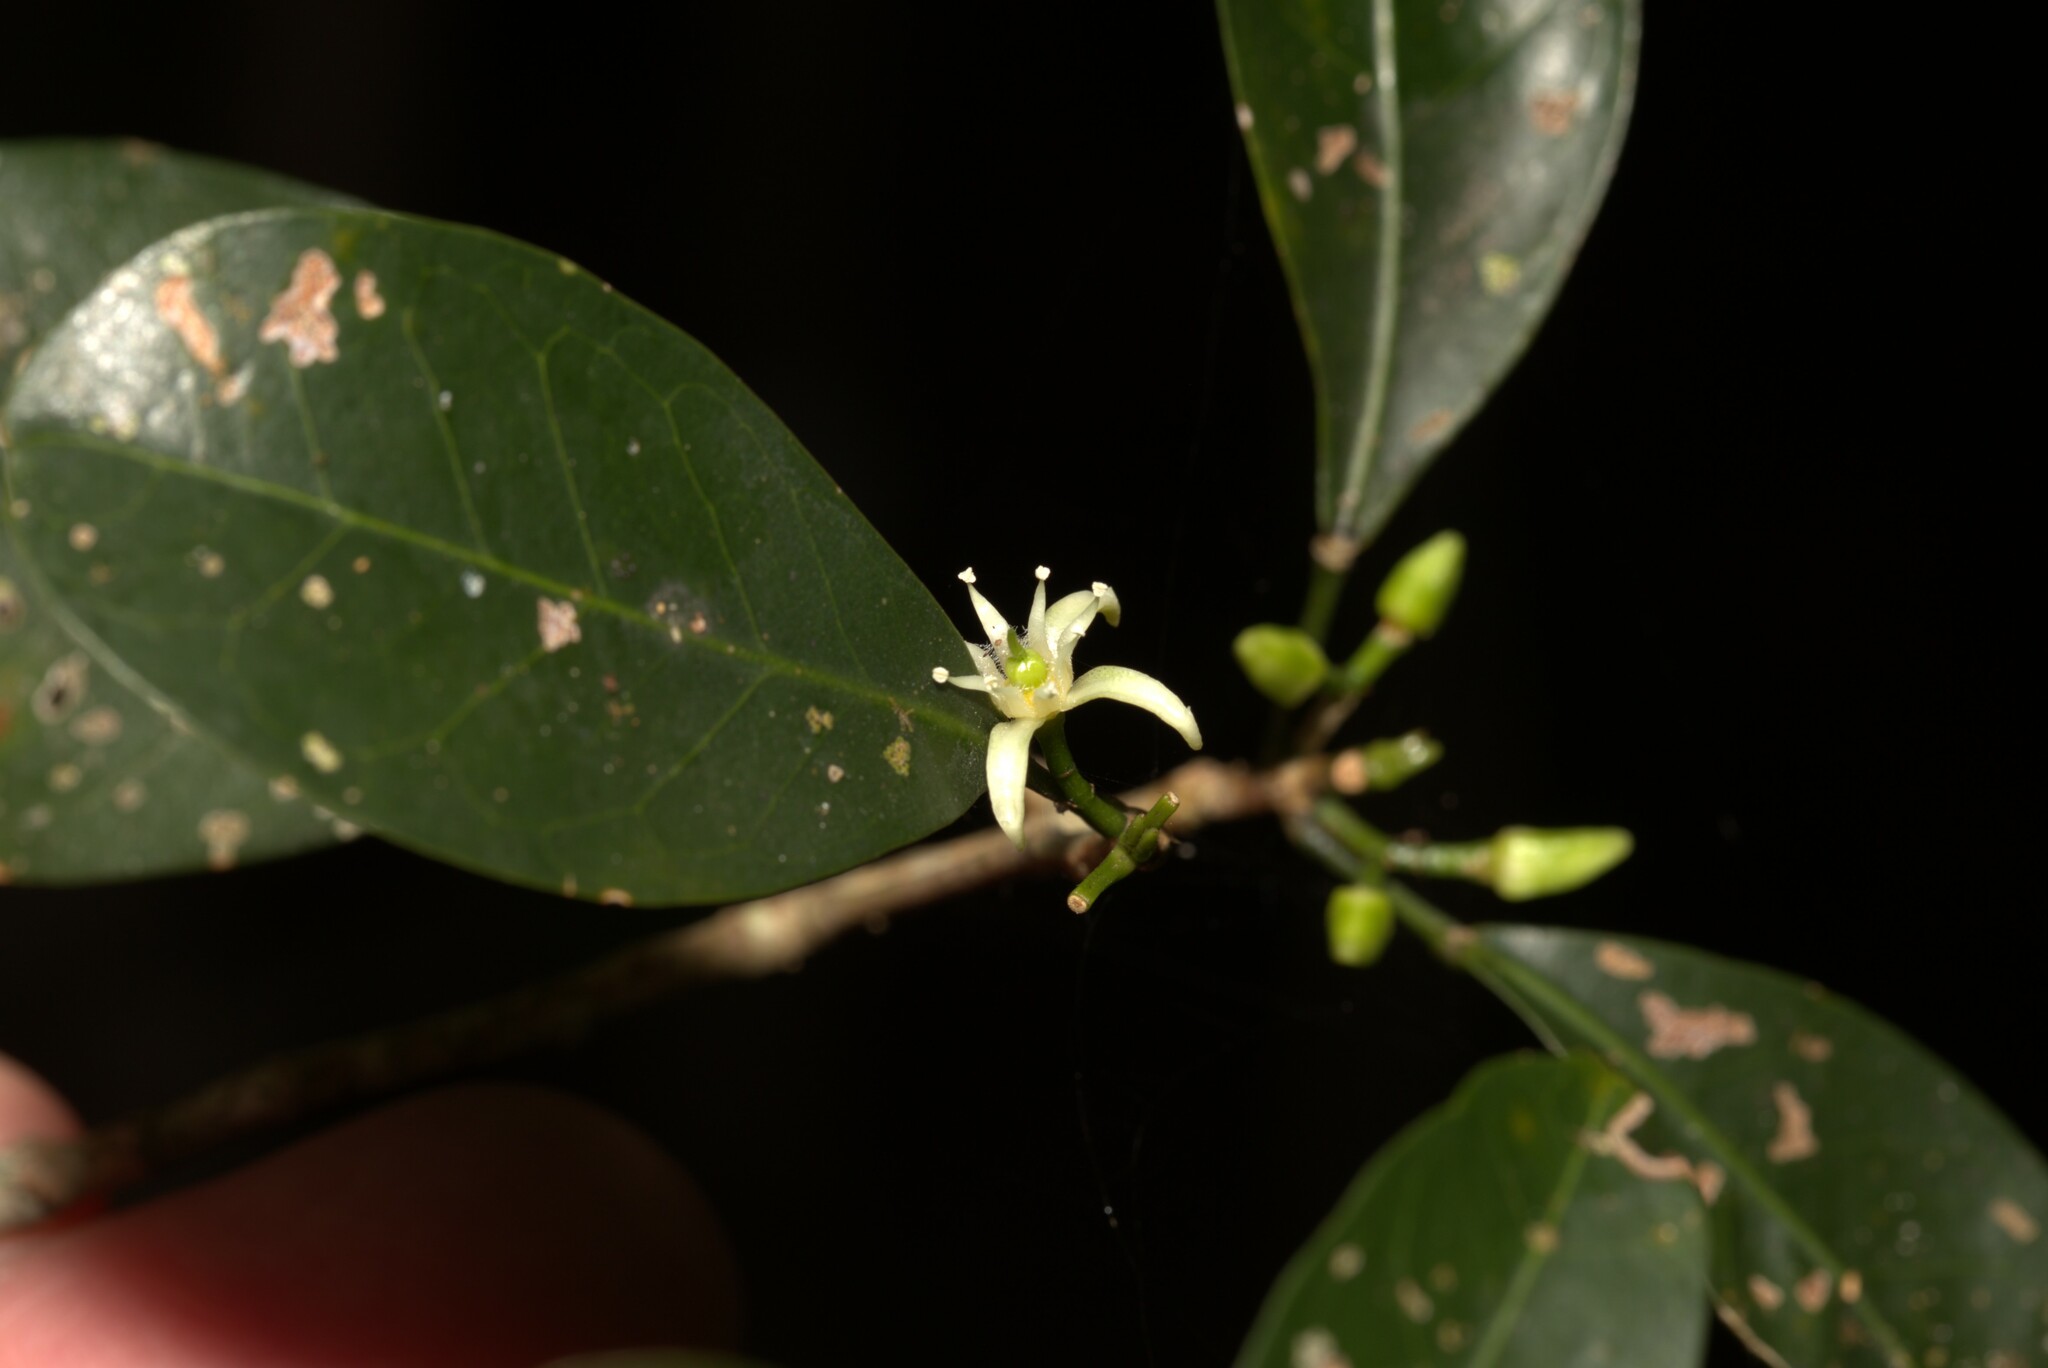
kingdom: Plantae
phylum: Tracheophyta
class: Magnoliopsida
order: Sapindales
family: Rutaceae
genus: Acronychia
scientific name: Acronychia laevis
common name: Hard aspen
